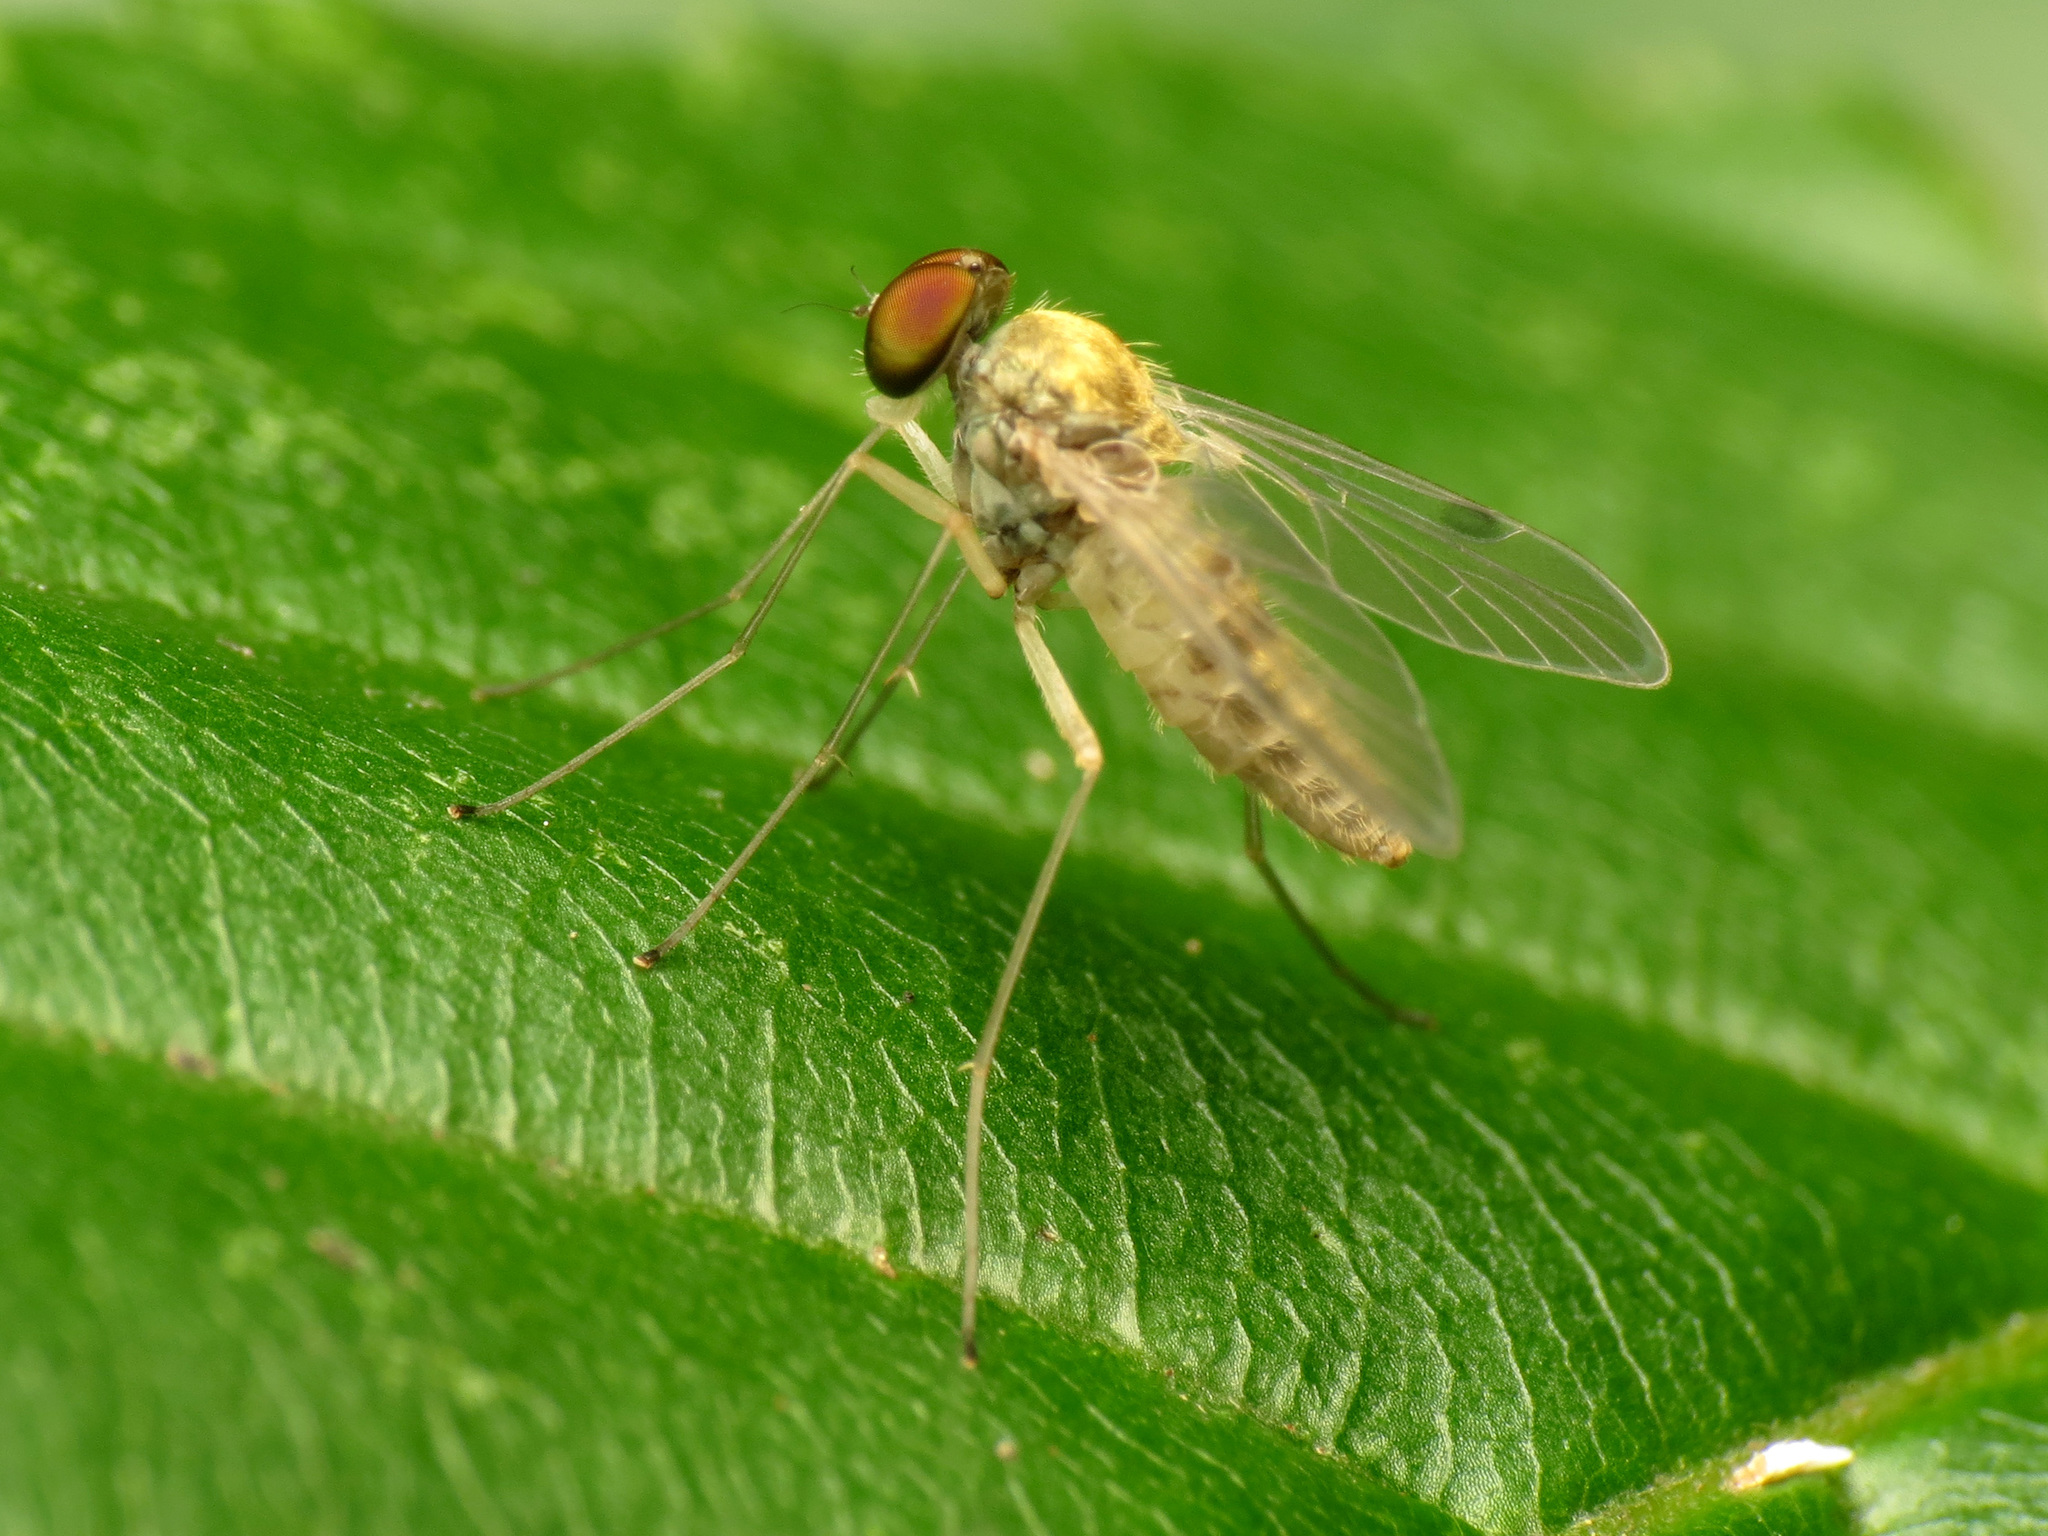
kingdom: Animalia
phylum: Arthropoda
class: Insecta
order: Diptera
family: Rhagionidae
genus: Chrysopilus
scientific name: Chrysopilus modestus
